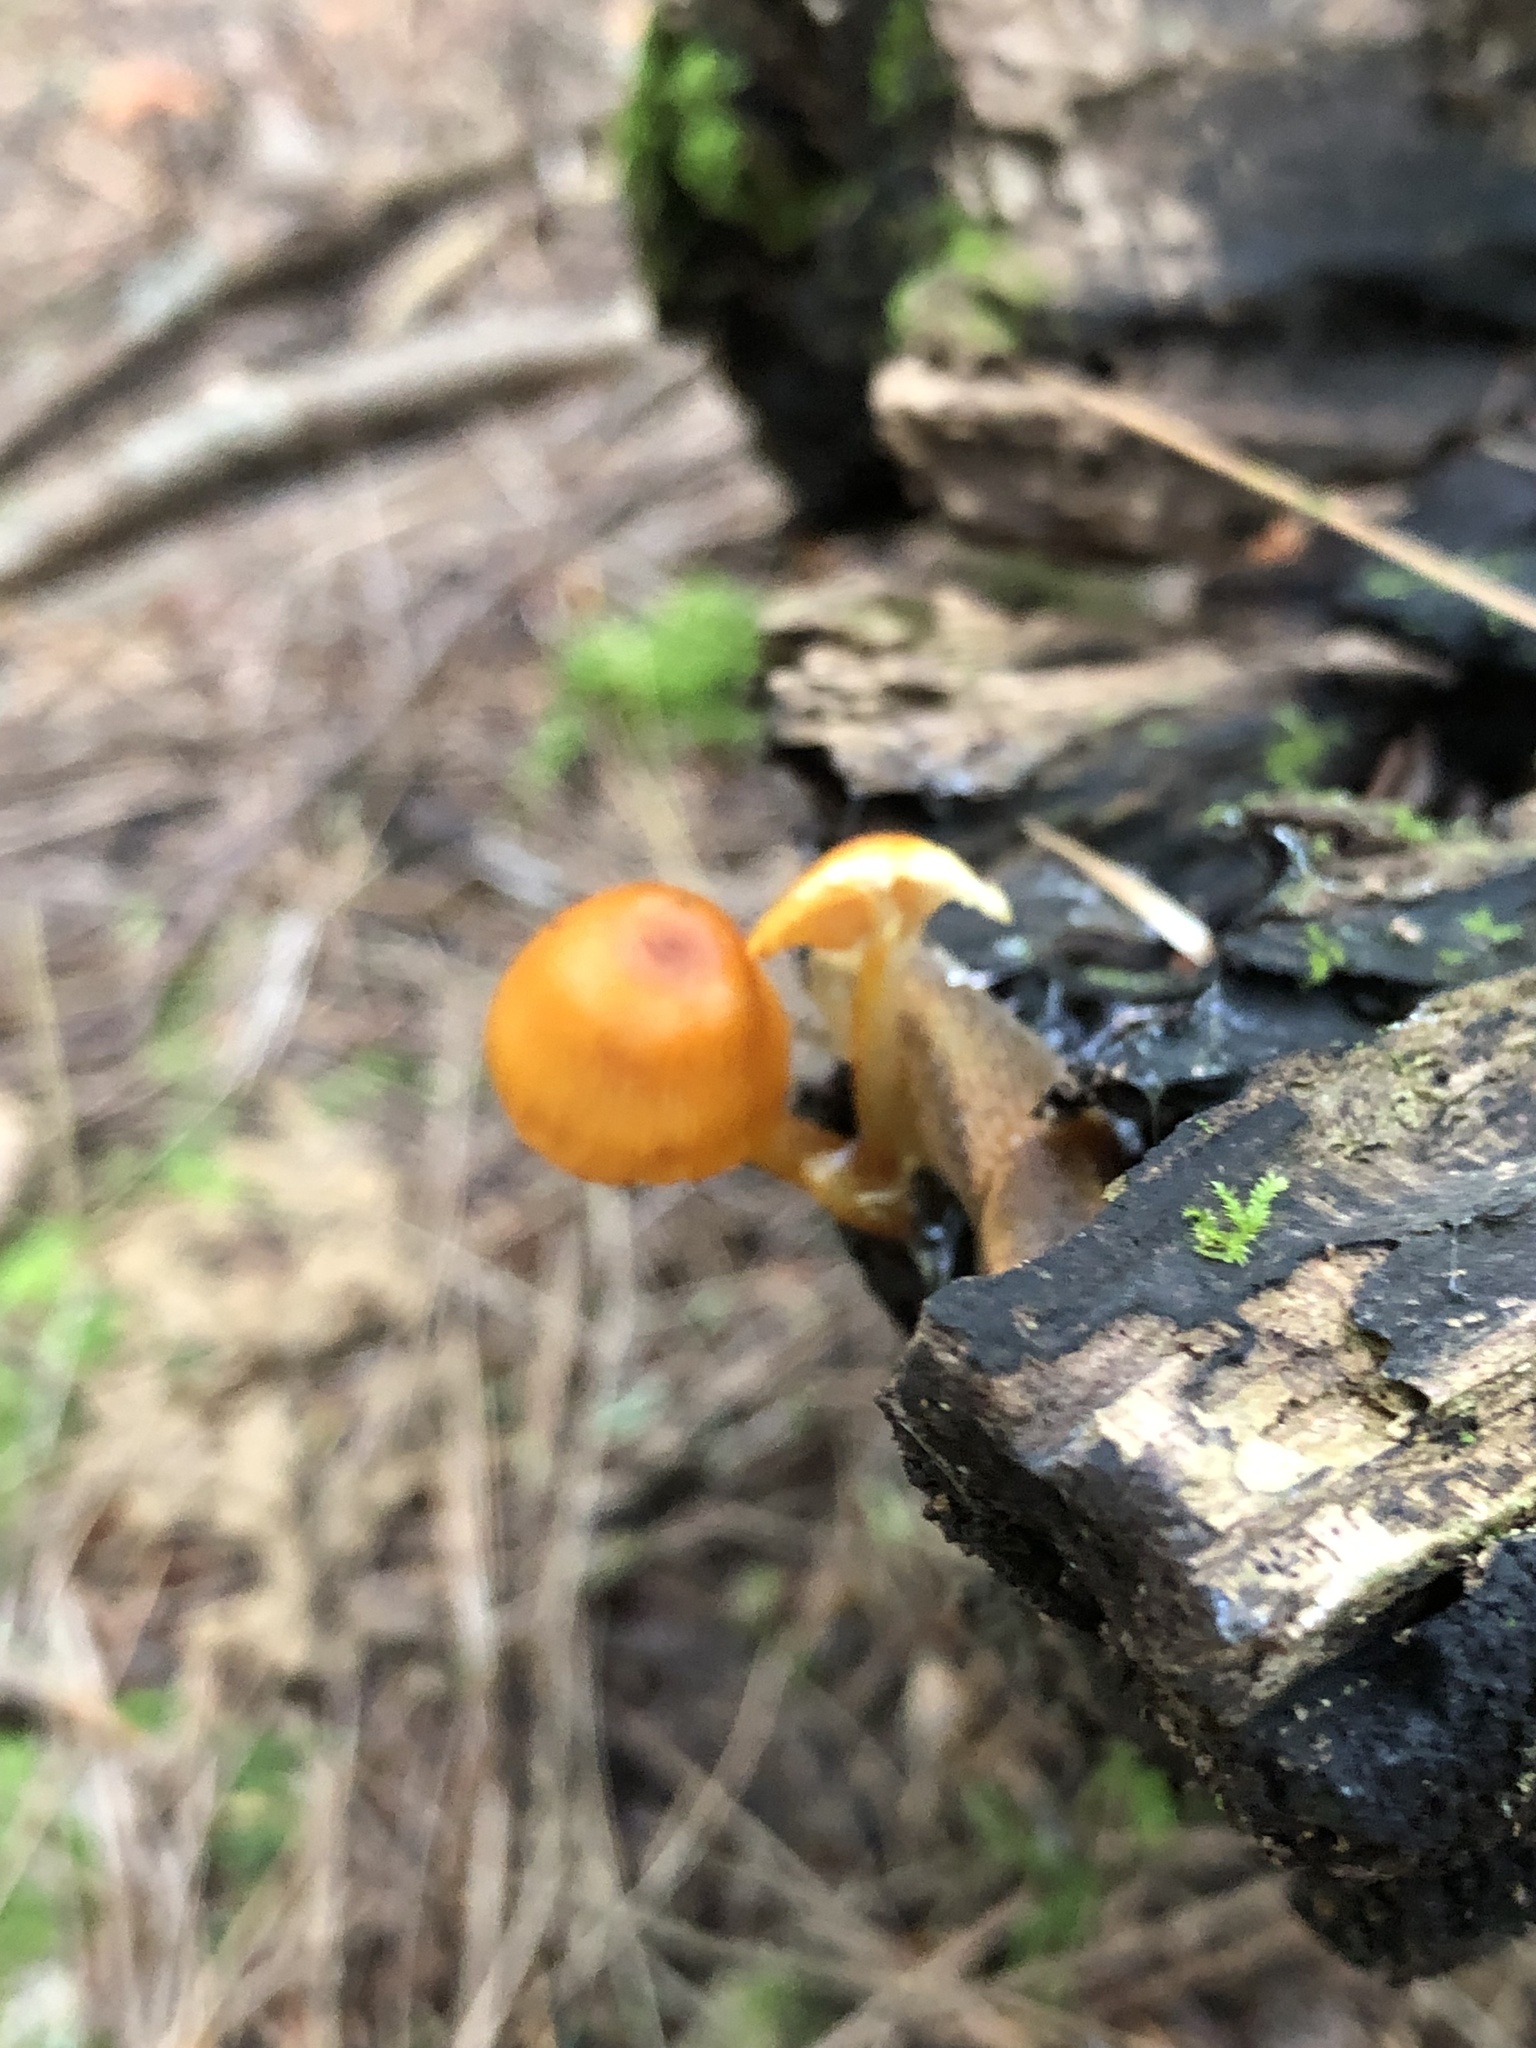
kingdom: Fungi
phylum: Basidiomycota
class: Agaricomycetes
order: Agaricales
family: Mycenaceae
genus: Mycena
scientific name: Mycena leaiana
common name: Orange mycena
